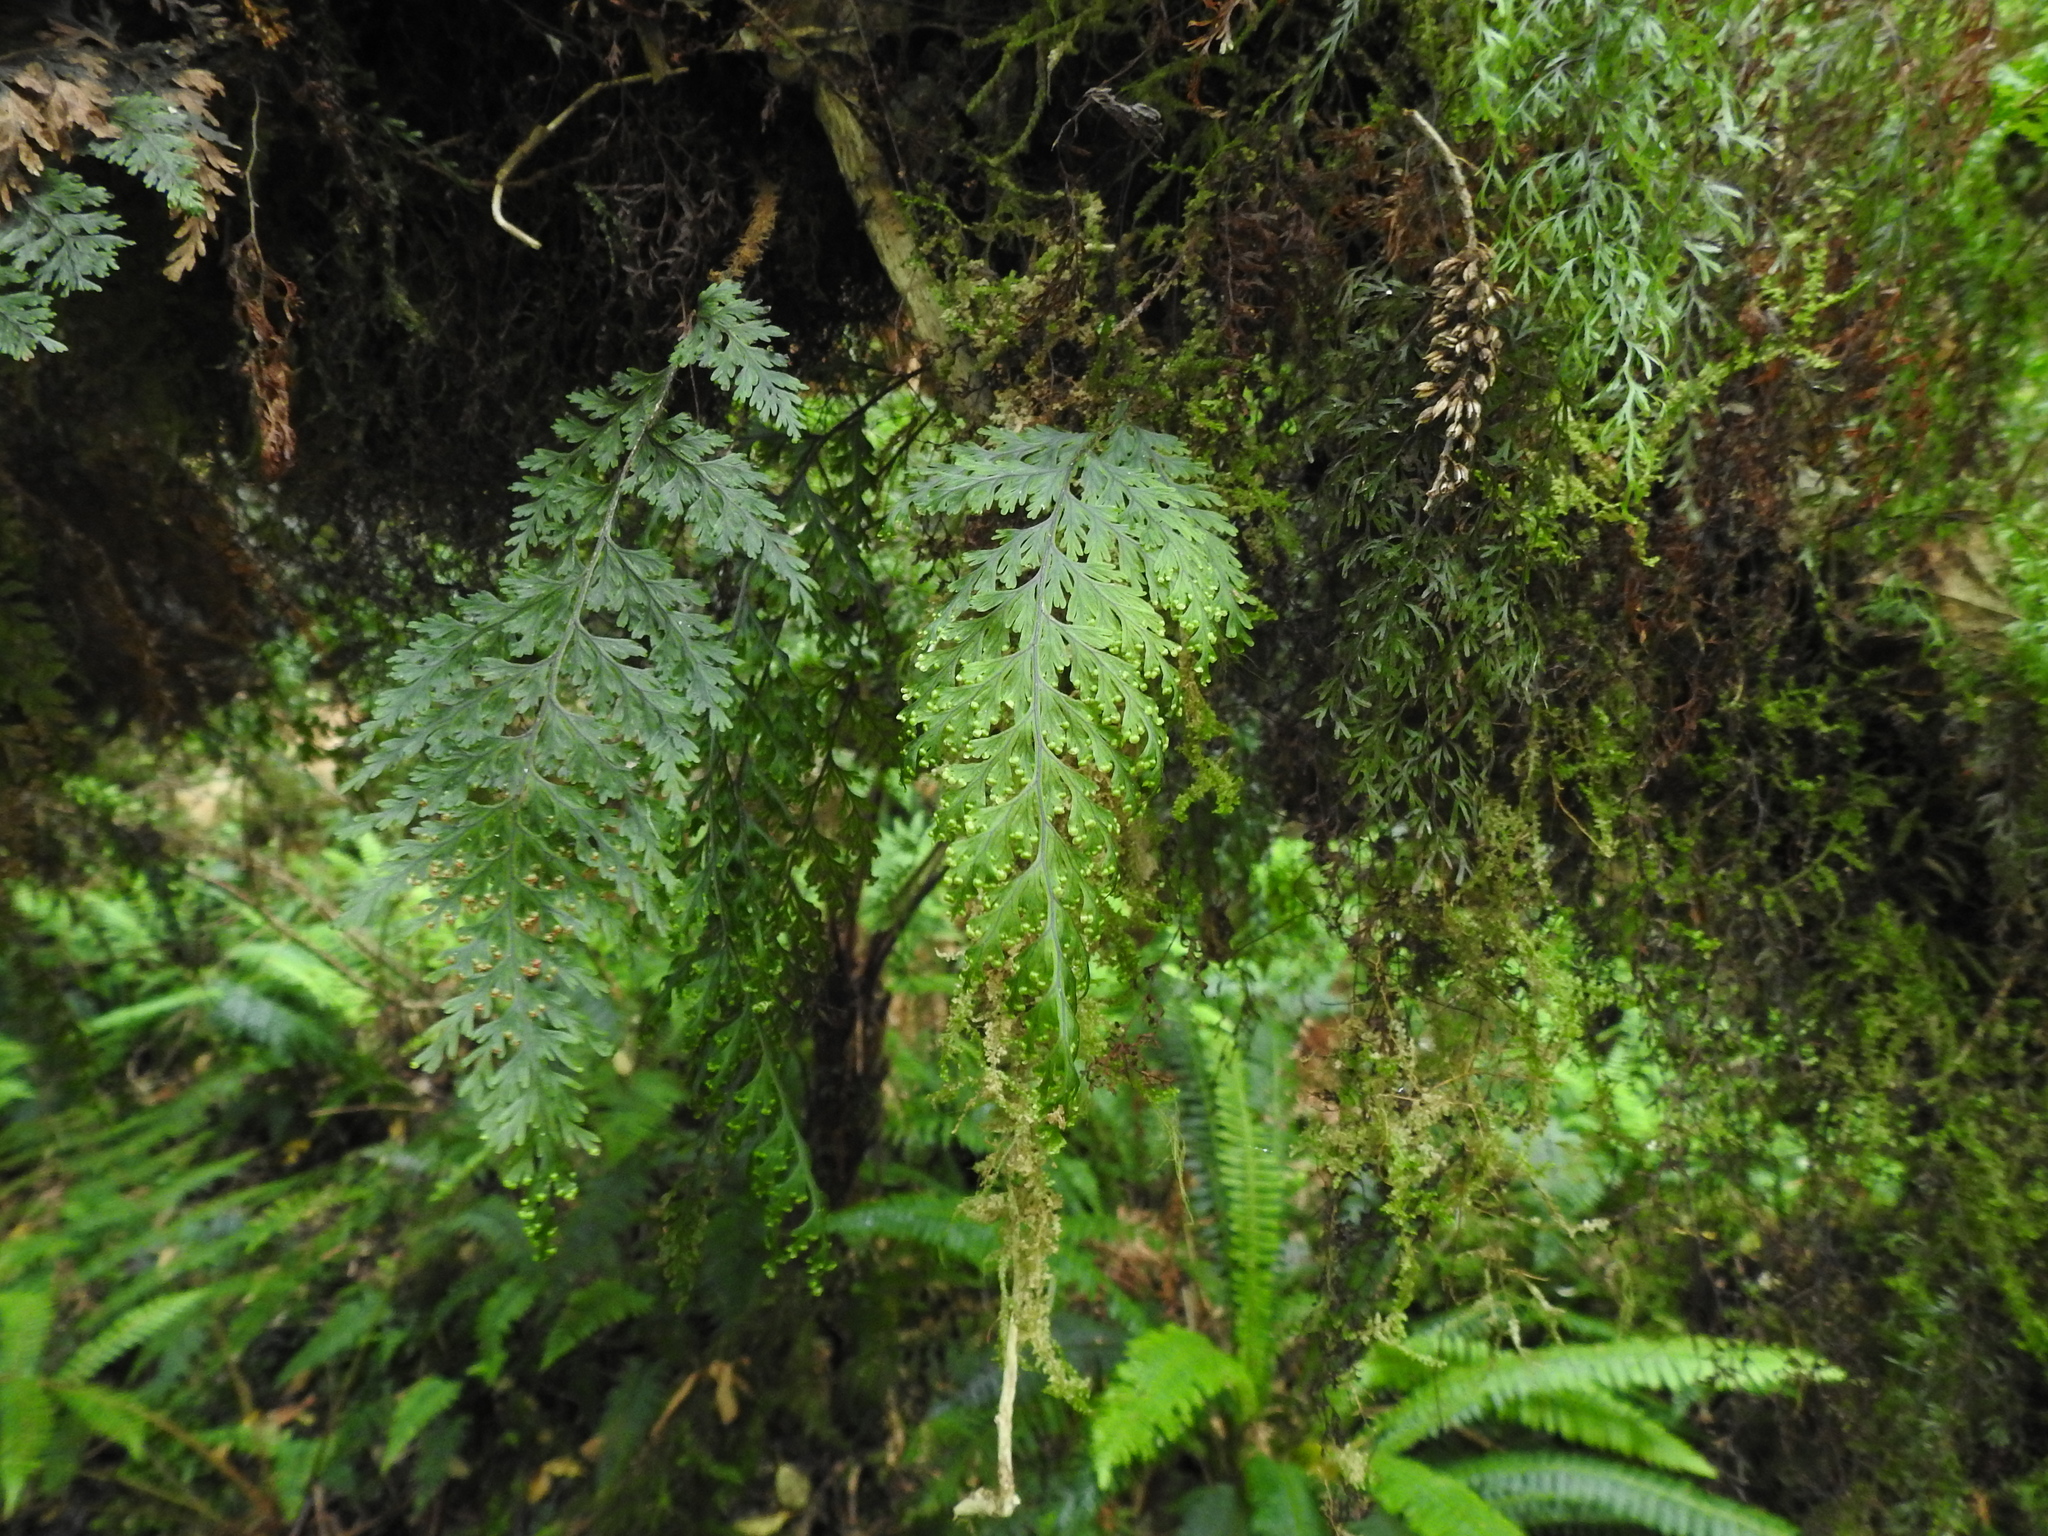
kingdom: Plantae
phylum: Tracheophyta
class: Polypodiopsida
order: Hymenophyllales
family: Hymenophyllaceae
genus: Hymenophyllum
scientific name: Hymenophyllum scabrum
